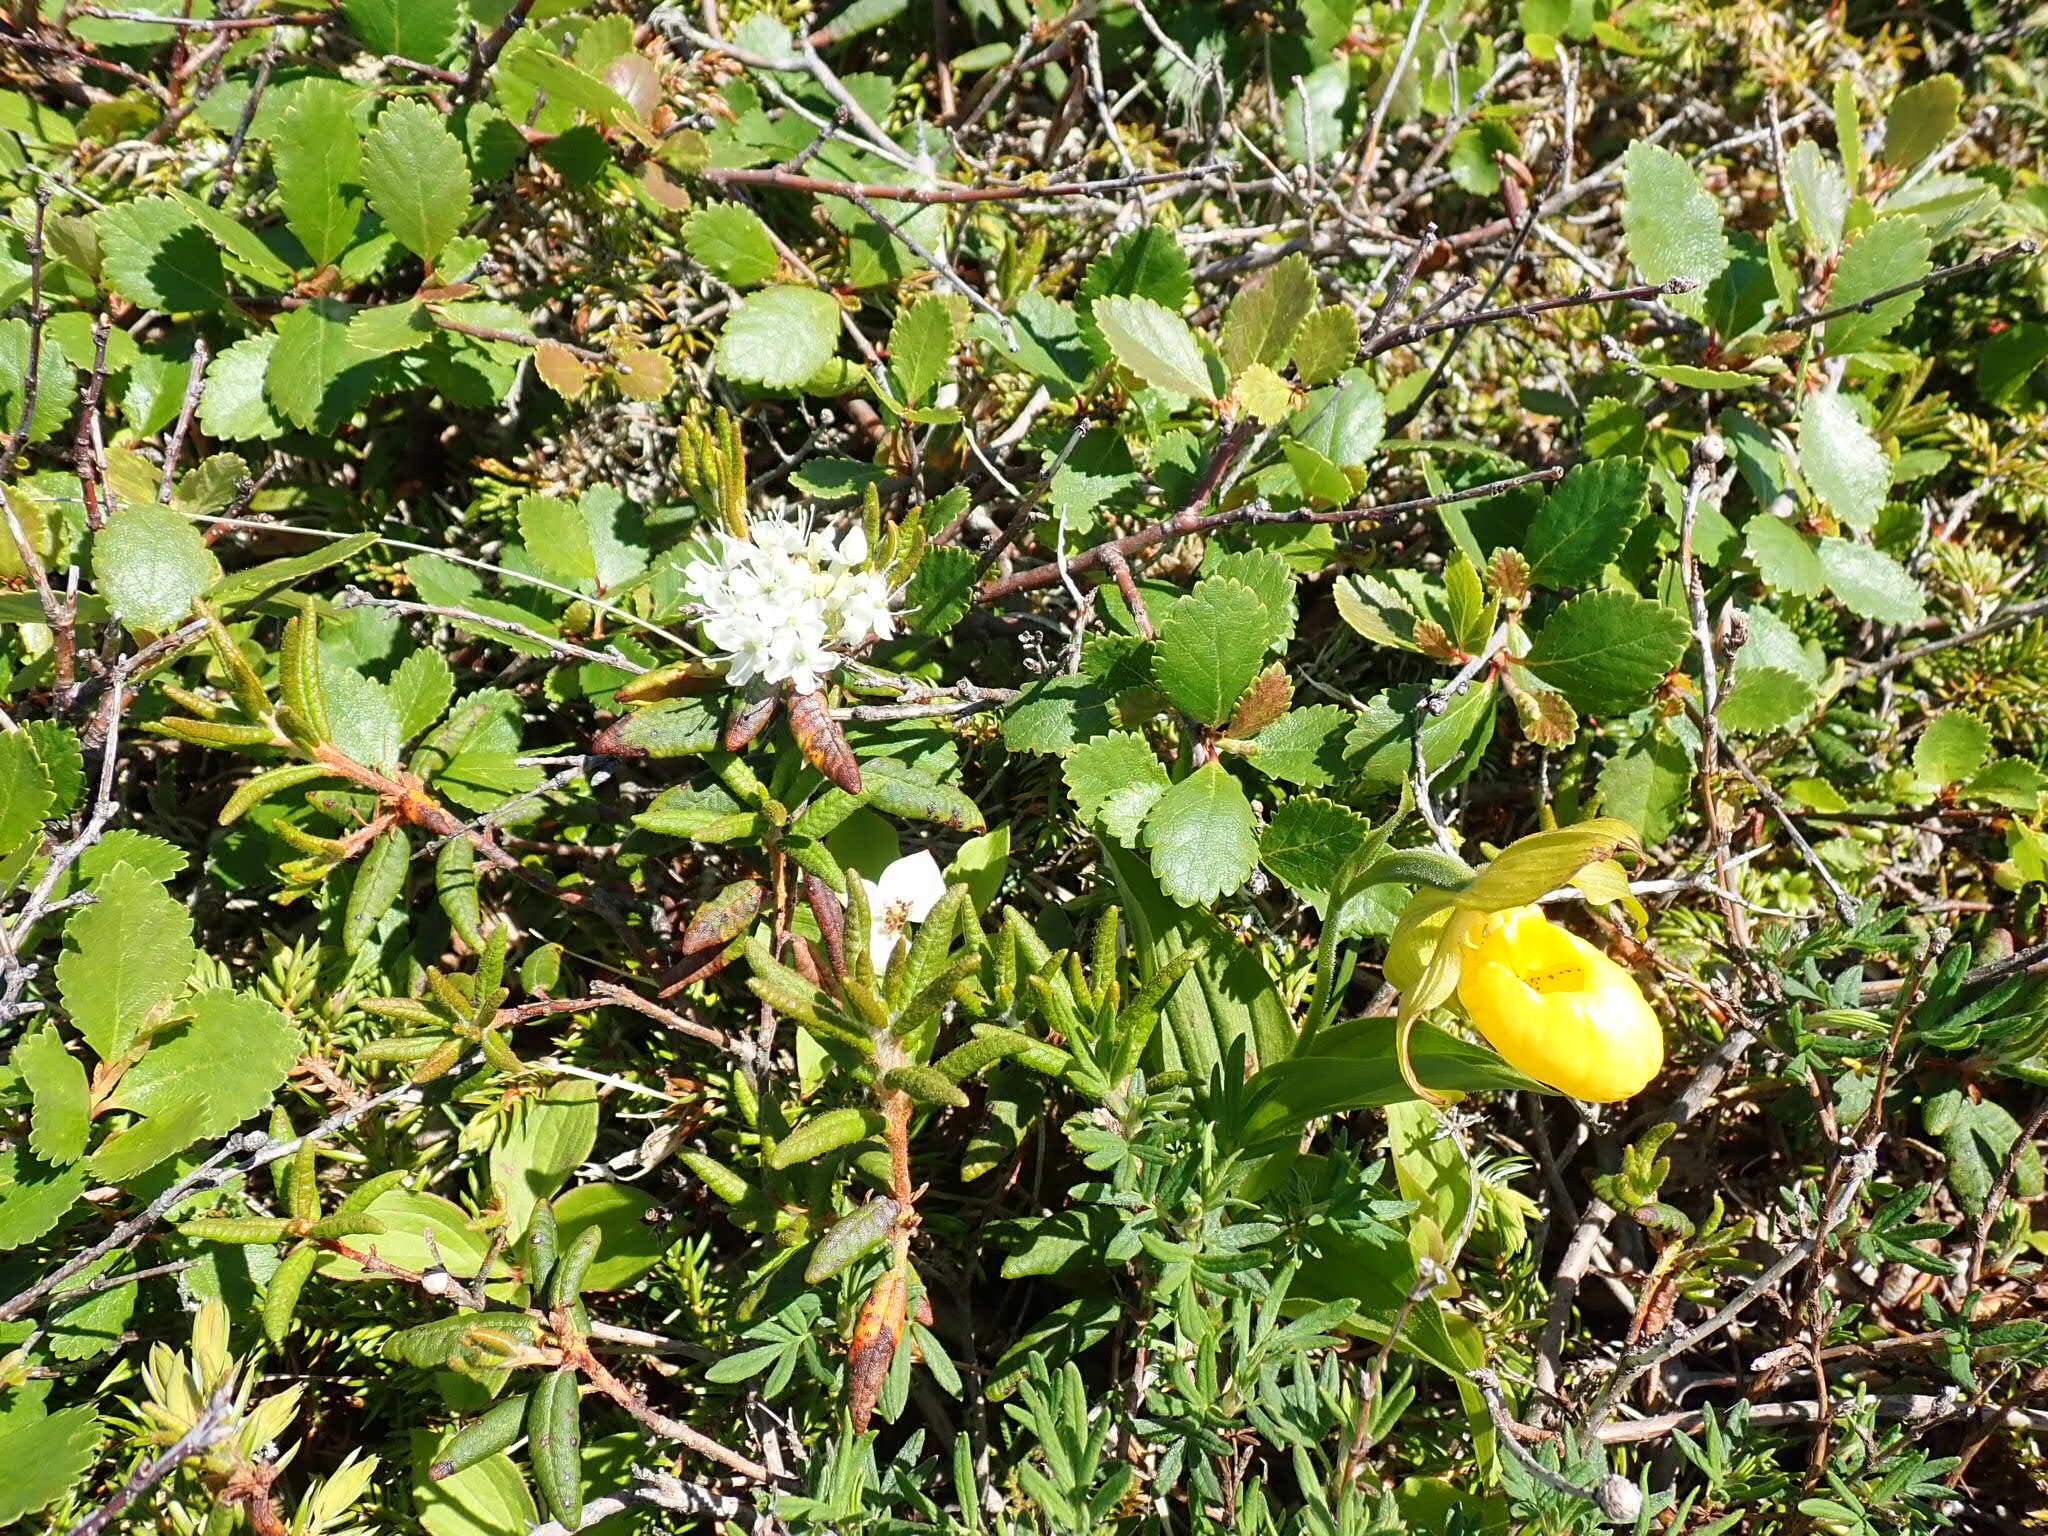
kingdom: Plantae
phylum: Tracheophyta
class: Magnoliopsida
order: Ericales
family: Ericaceae
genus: Rhododendron
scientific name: Rhododendron groenlandicum
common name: Bog labrador tea
